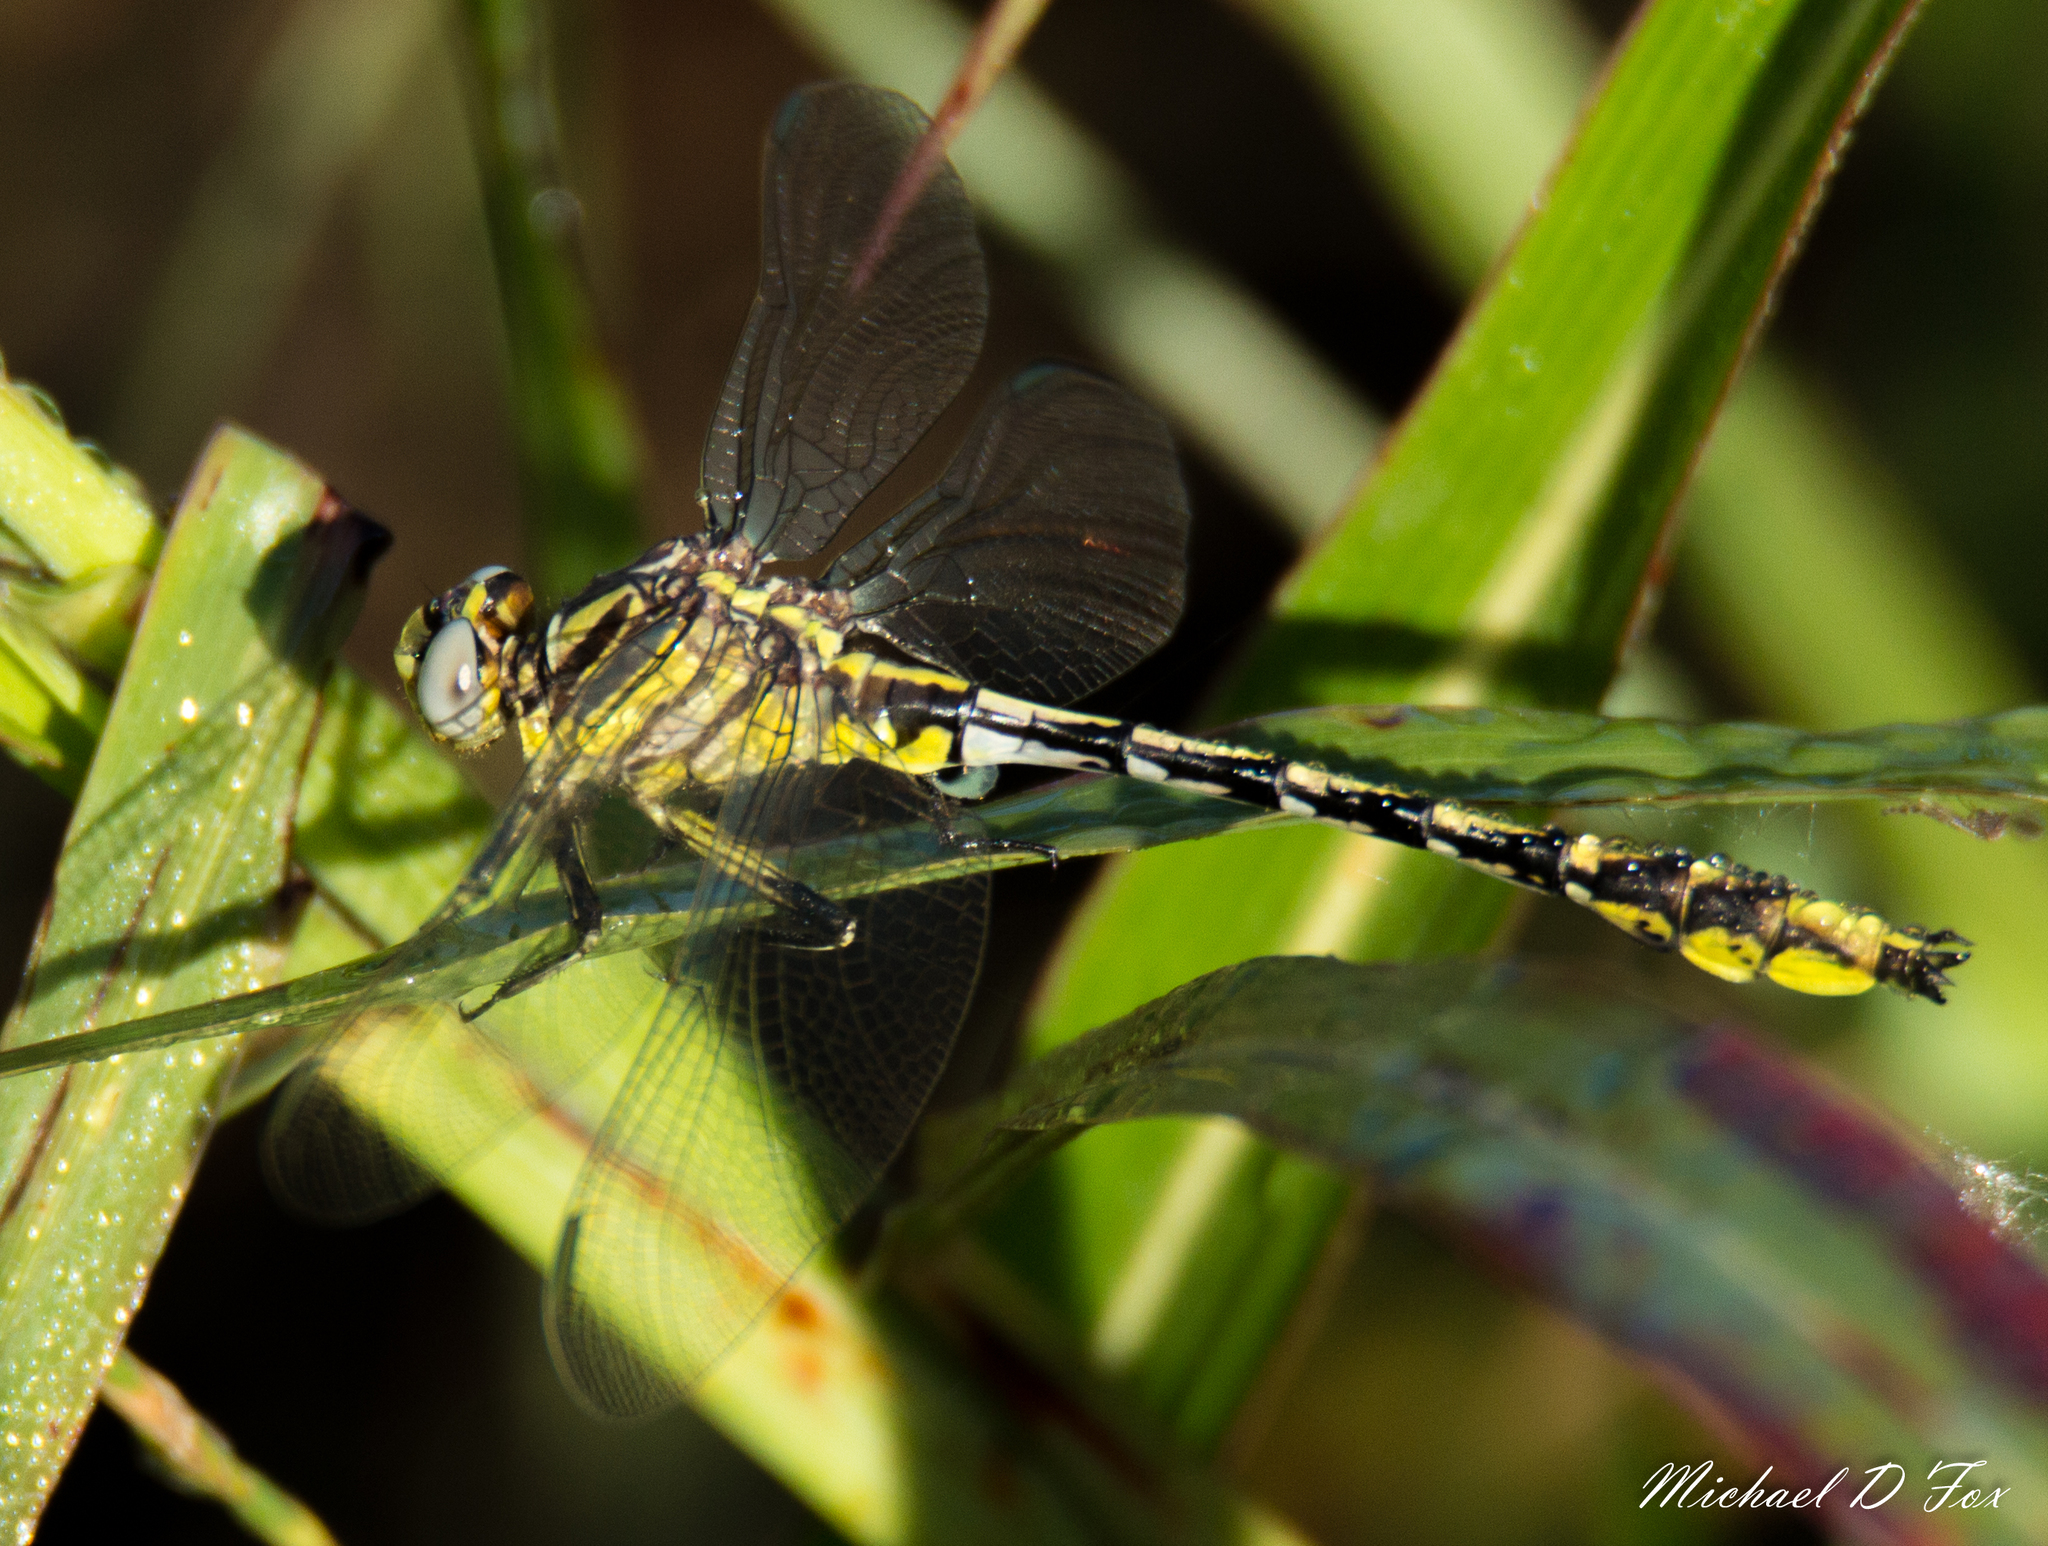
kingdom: Animalia
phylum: Arthropoda
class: Insecta
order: Odonata
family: Gomphidae
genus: Phanogomphus
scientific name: Phanogomphus militaris
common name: Sulphur-tipped clubtail
